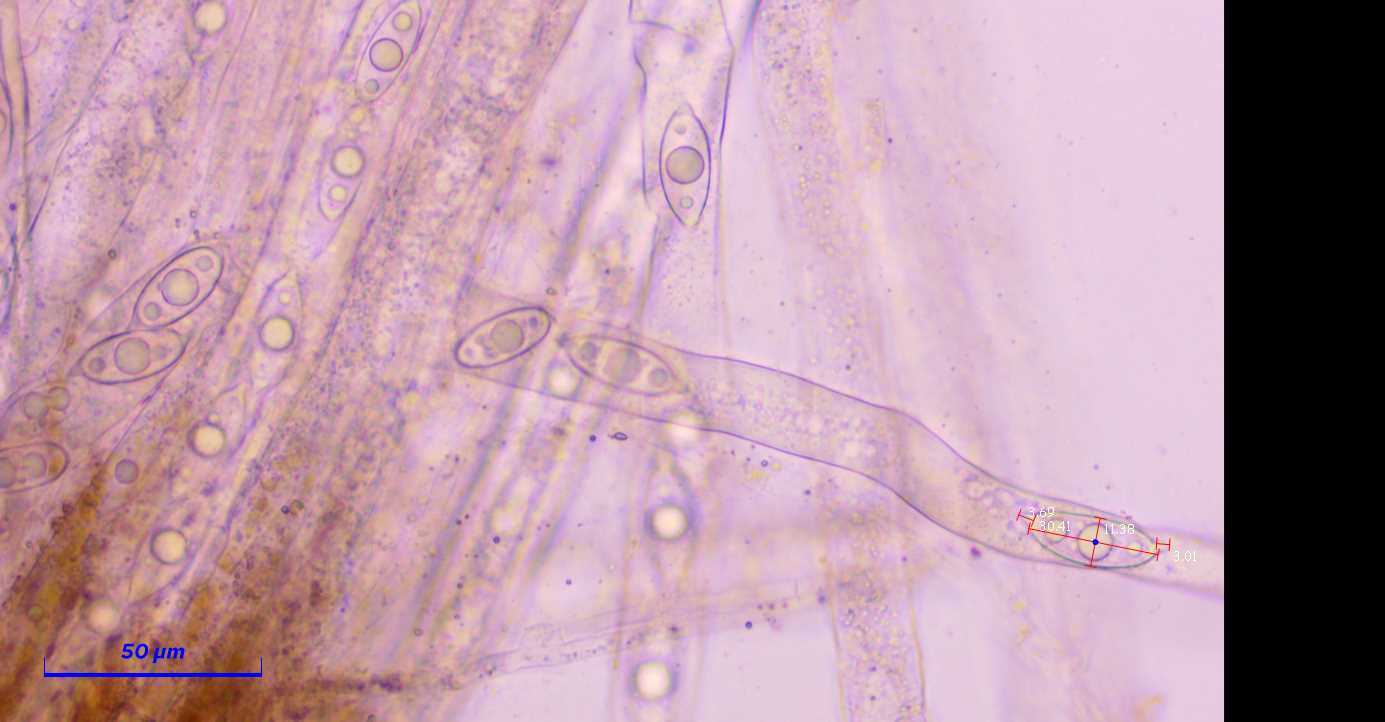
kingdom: Fungi
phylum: Ascomycota
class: Pezizomycetes
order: Pezizales
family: Discinaceae
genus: Discina
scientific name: Discina ancilis
